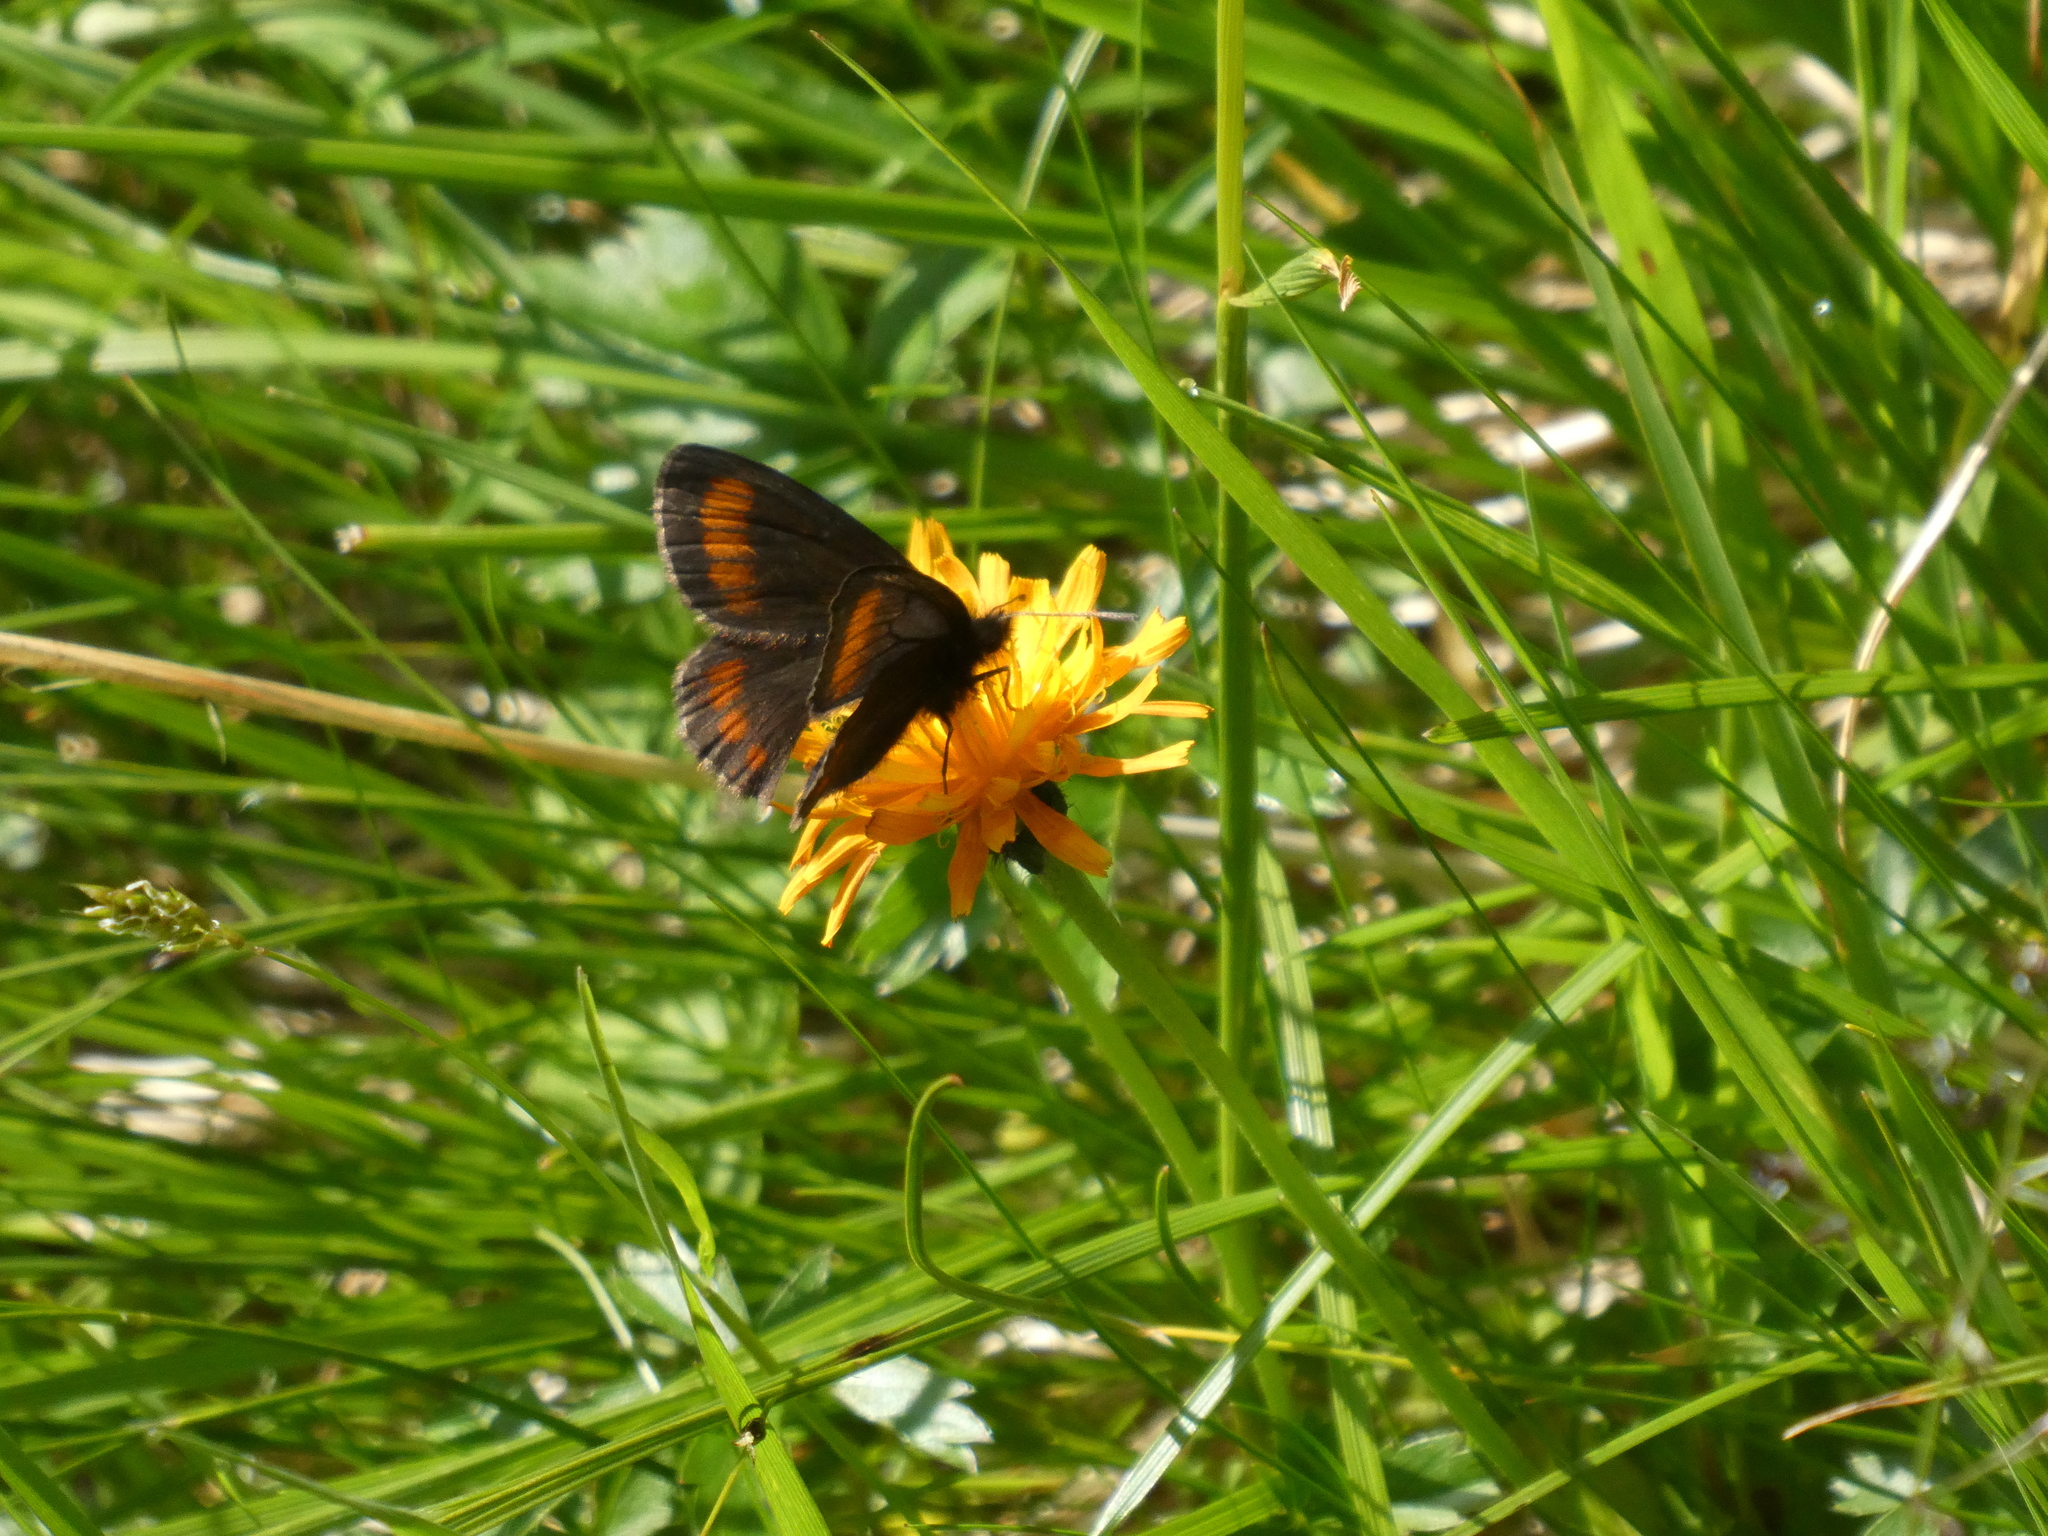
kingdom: Animalia
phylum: Arthropoda
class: Insecta
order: Lepidoptera
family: Nymphalidae
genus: Erebia
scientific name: Erebia pharte
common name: Blind ringlet
